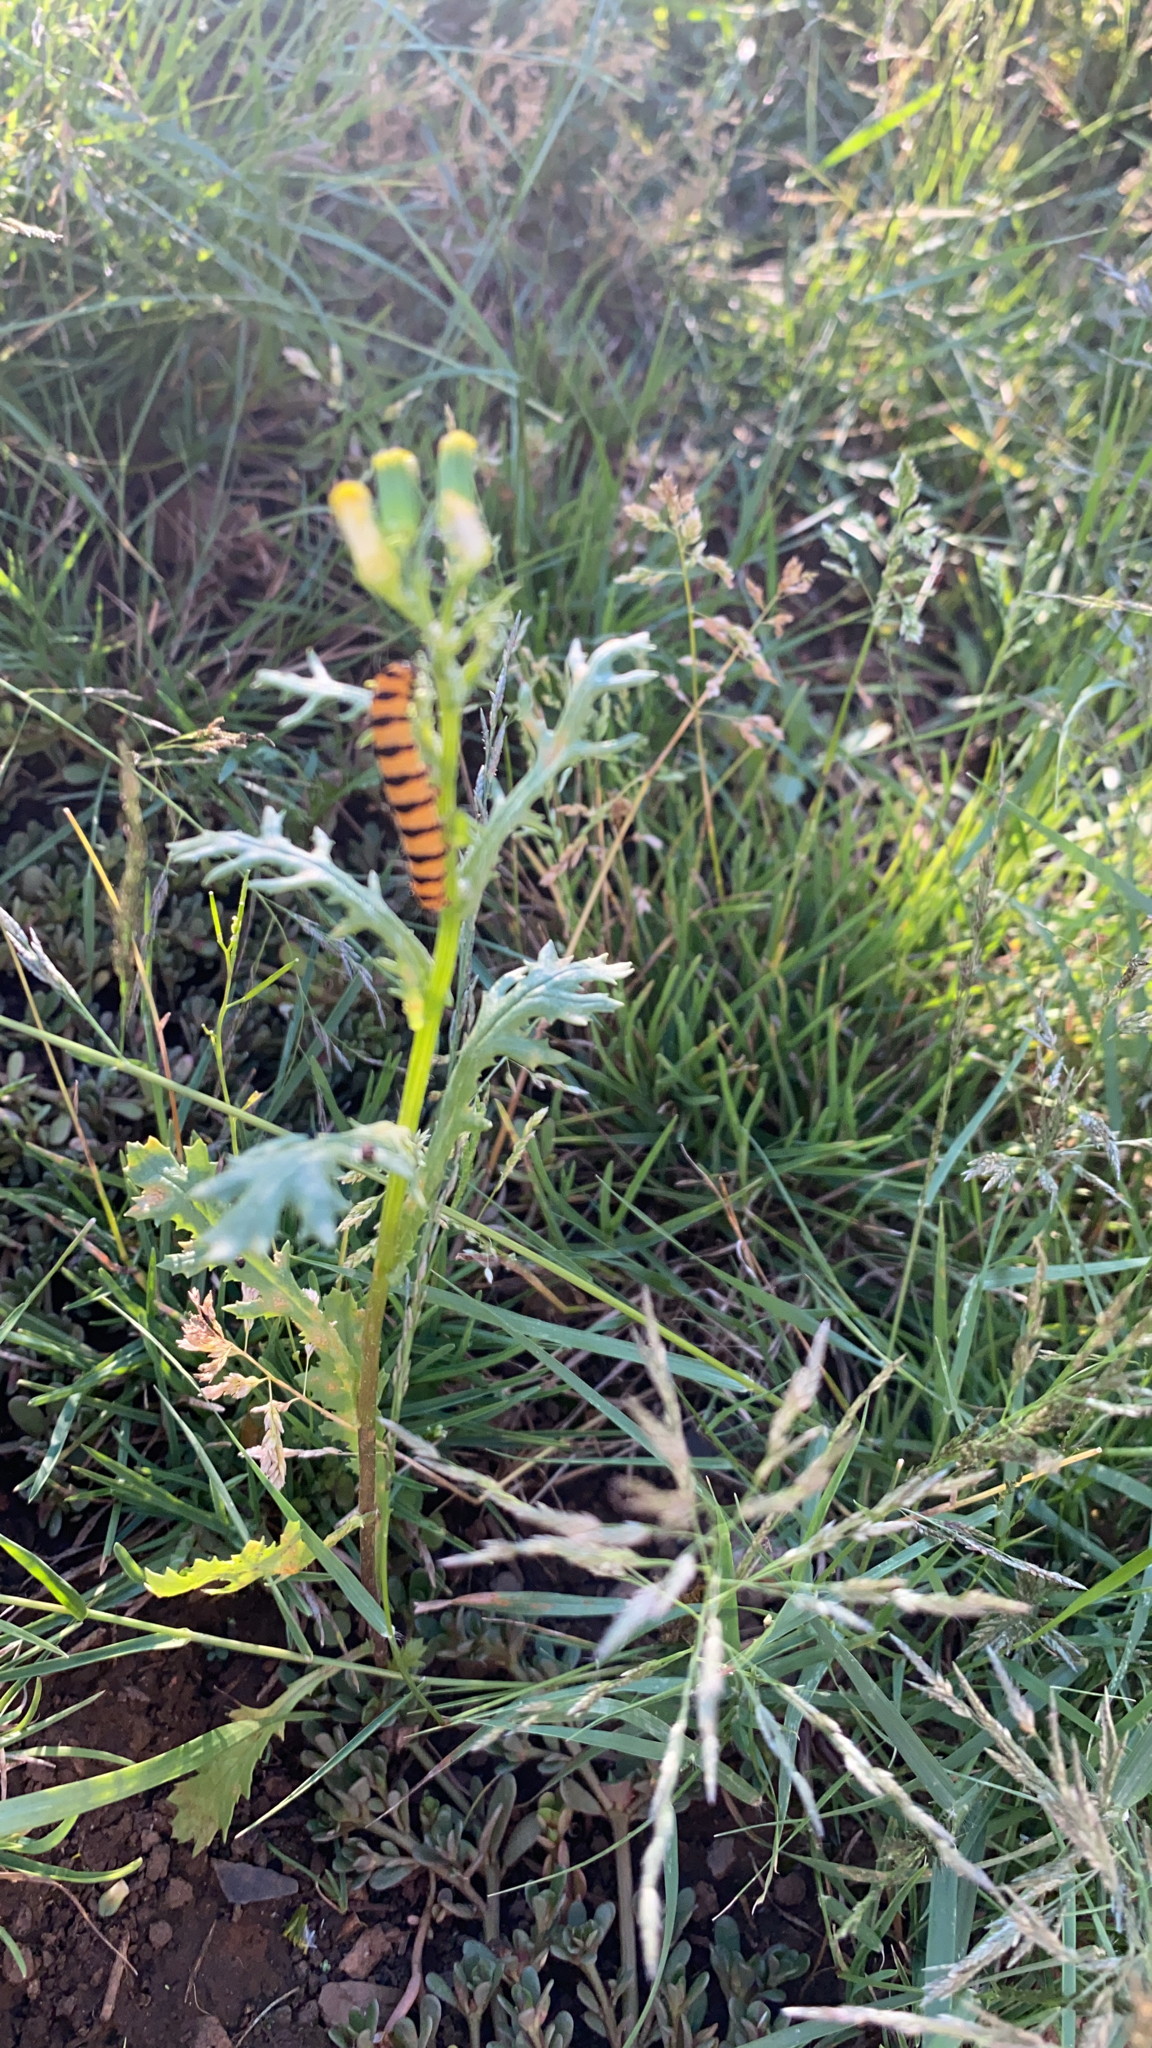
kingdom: Animalia
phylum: Arthropoda
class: Insecta
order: Lepidoptera
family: Erebidae
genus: Tyria
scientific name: Tyria jacobaeae
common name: Cinnabar
